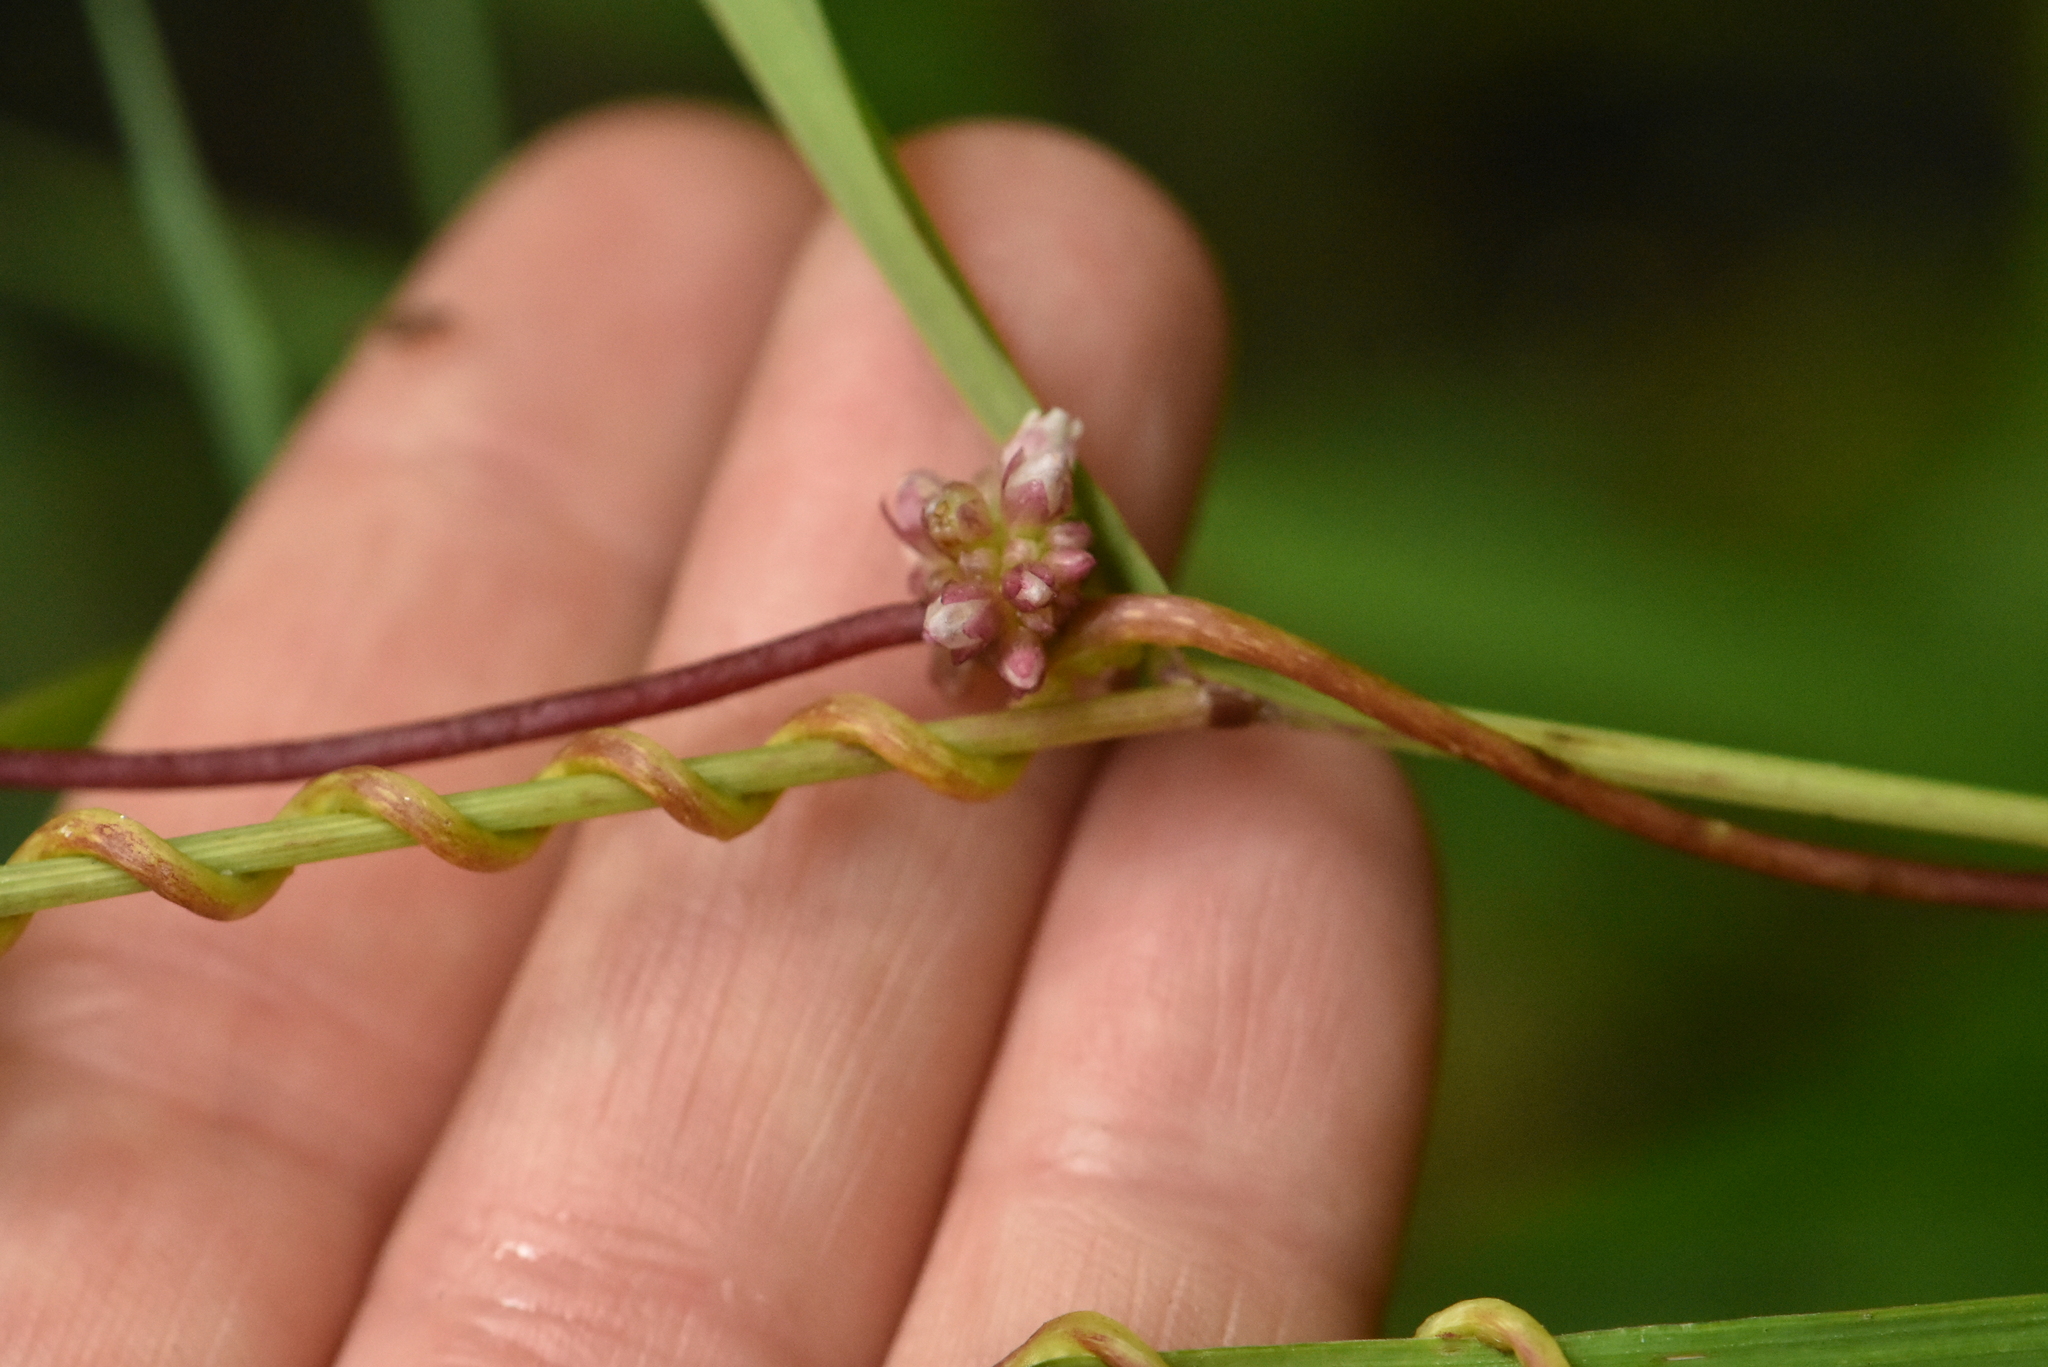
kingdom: Plantae
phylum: Tracheophyta
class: Magnoliopsida
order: Solanales
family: Convolvulaceae
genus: Cuscuta
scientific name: Cuscuta europaea
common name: Greater dodder
